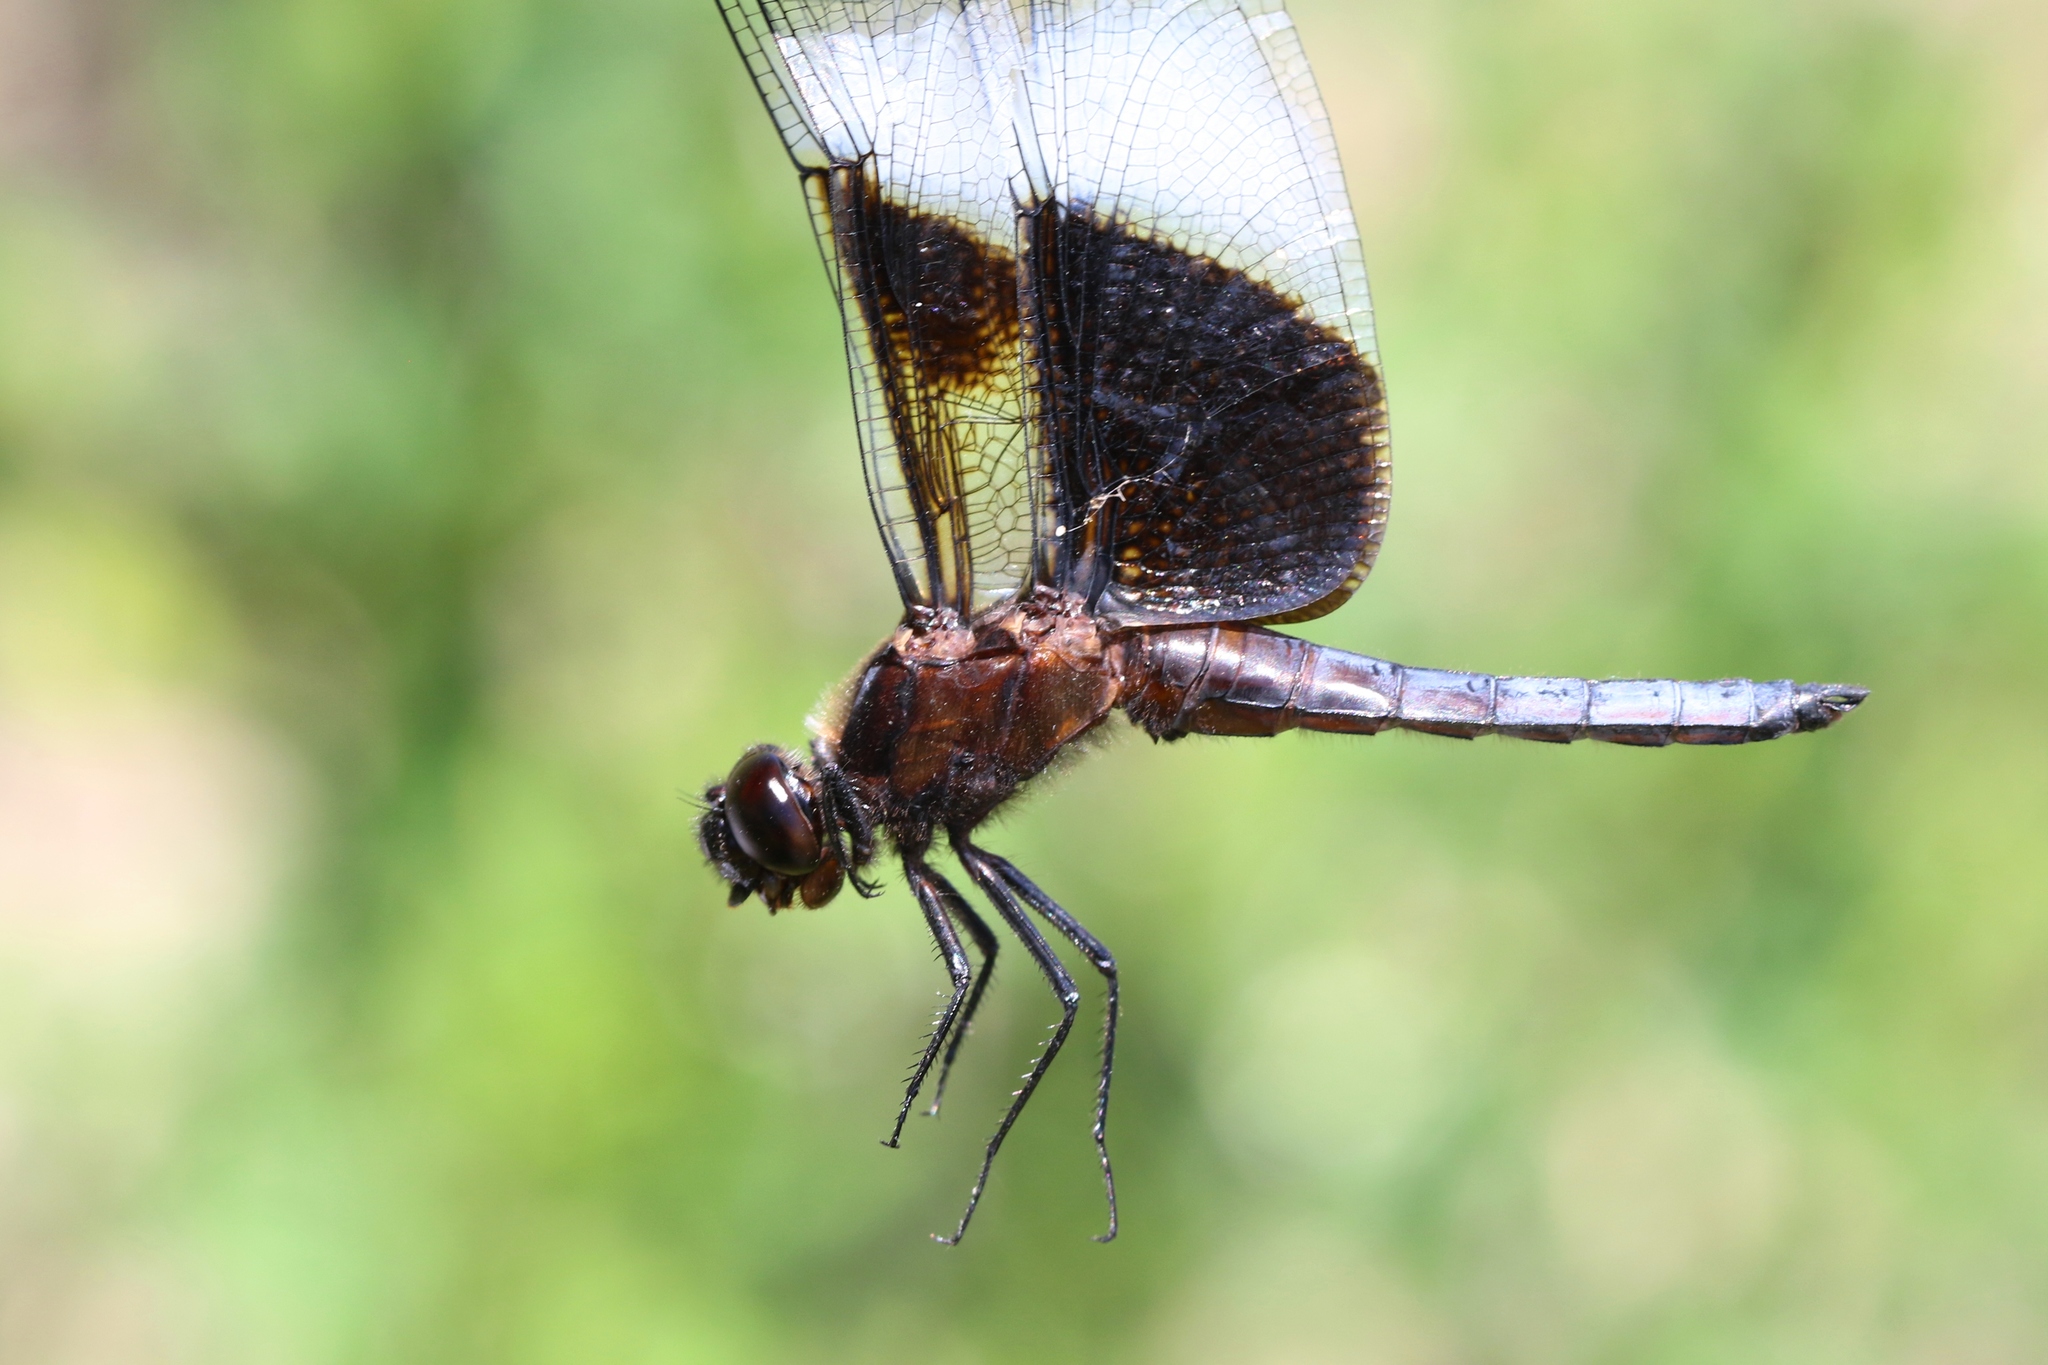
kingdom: Animalia
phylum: Arthropoda
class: Insecta
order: Odonata
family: Libellulidae
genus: Libellula
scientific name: Libellula luctuosa
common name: Widow skimmer
